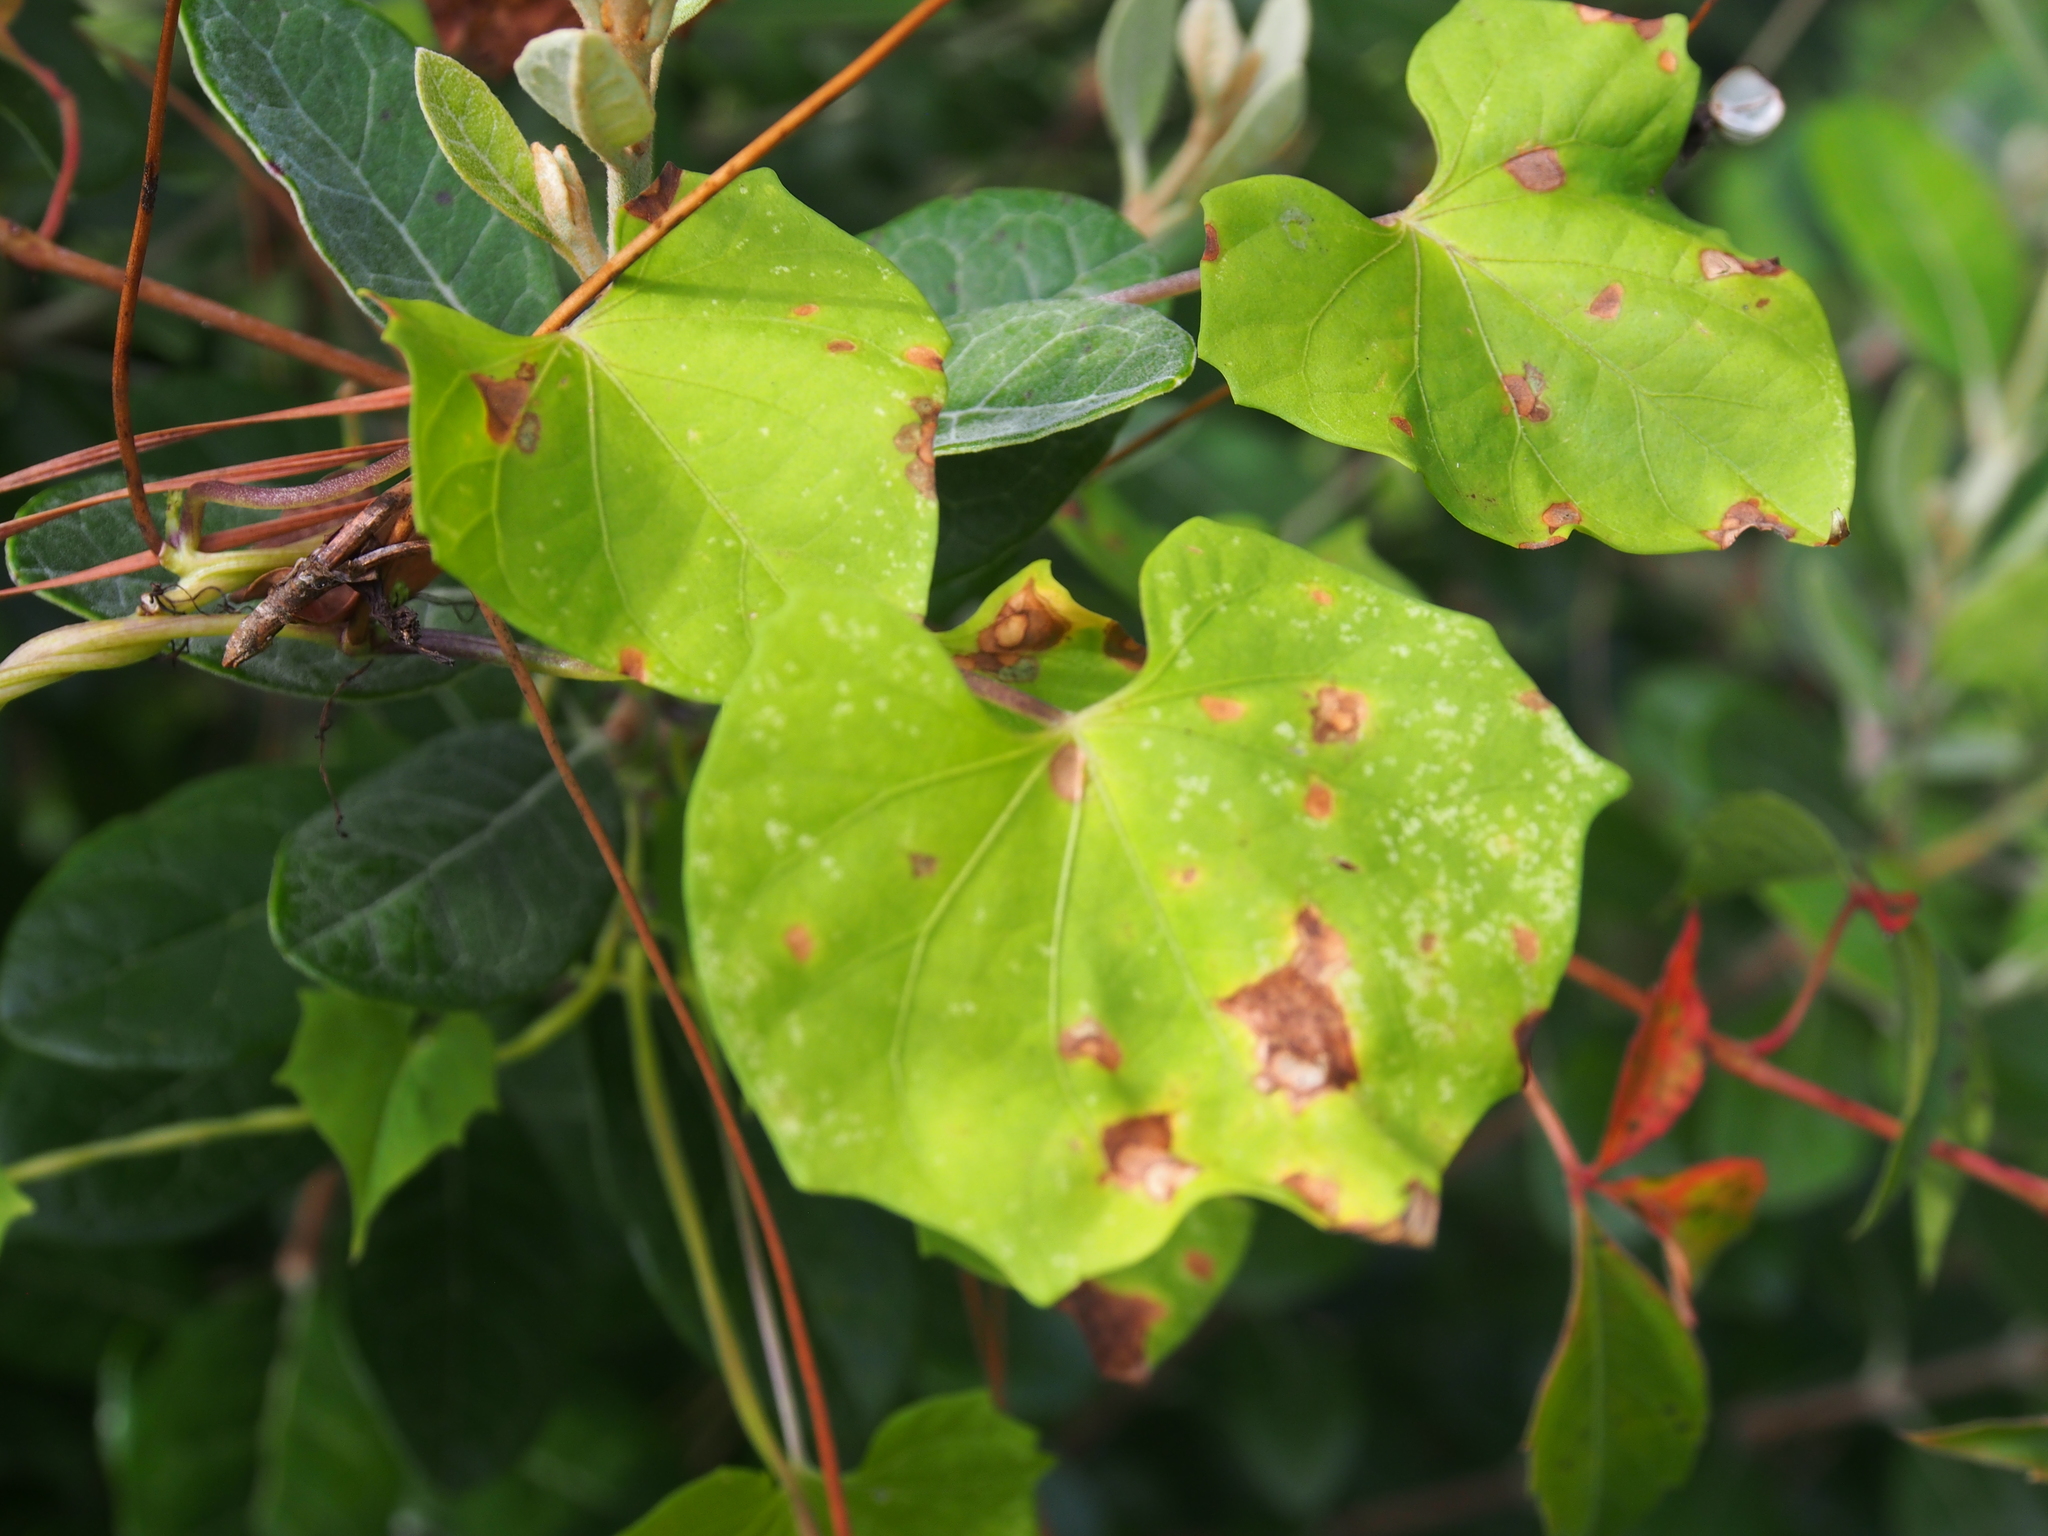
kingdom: Plantae
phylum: Tracheophyta
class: Magnoliopsida
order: Solanales
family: Convolvulaceae
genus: Ipomoea
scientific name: Ipomoea hederifolia
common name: Ivy-leaf morning-glory
